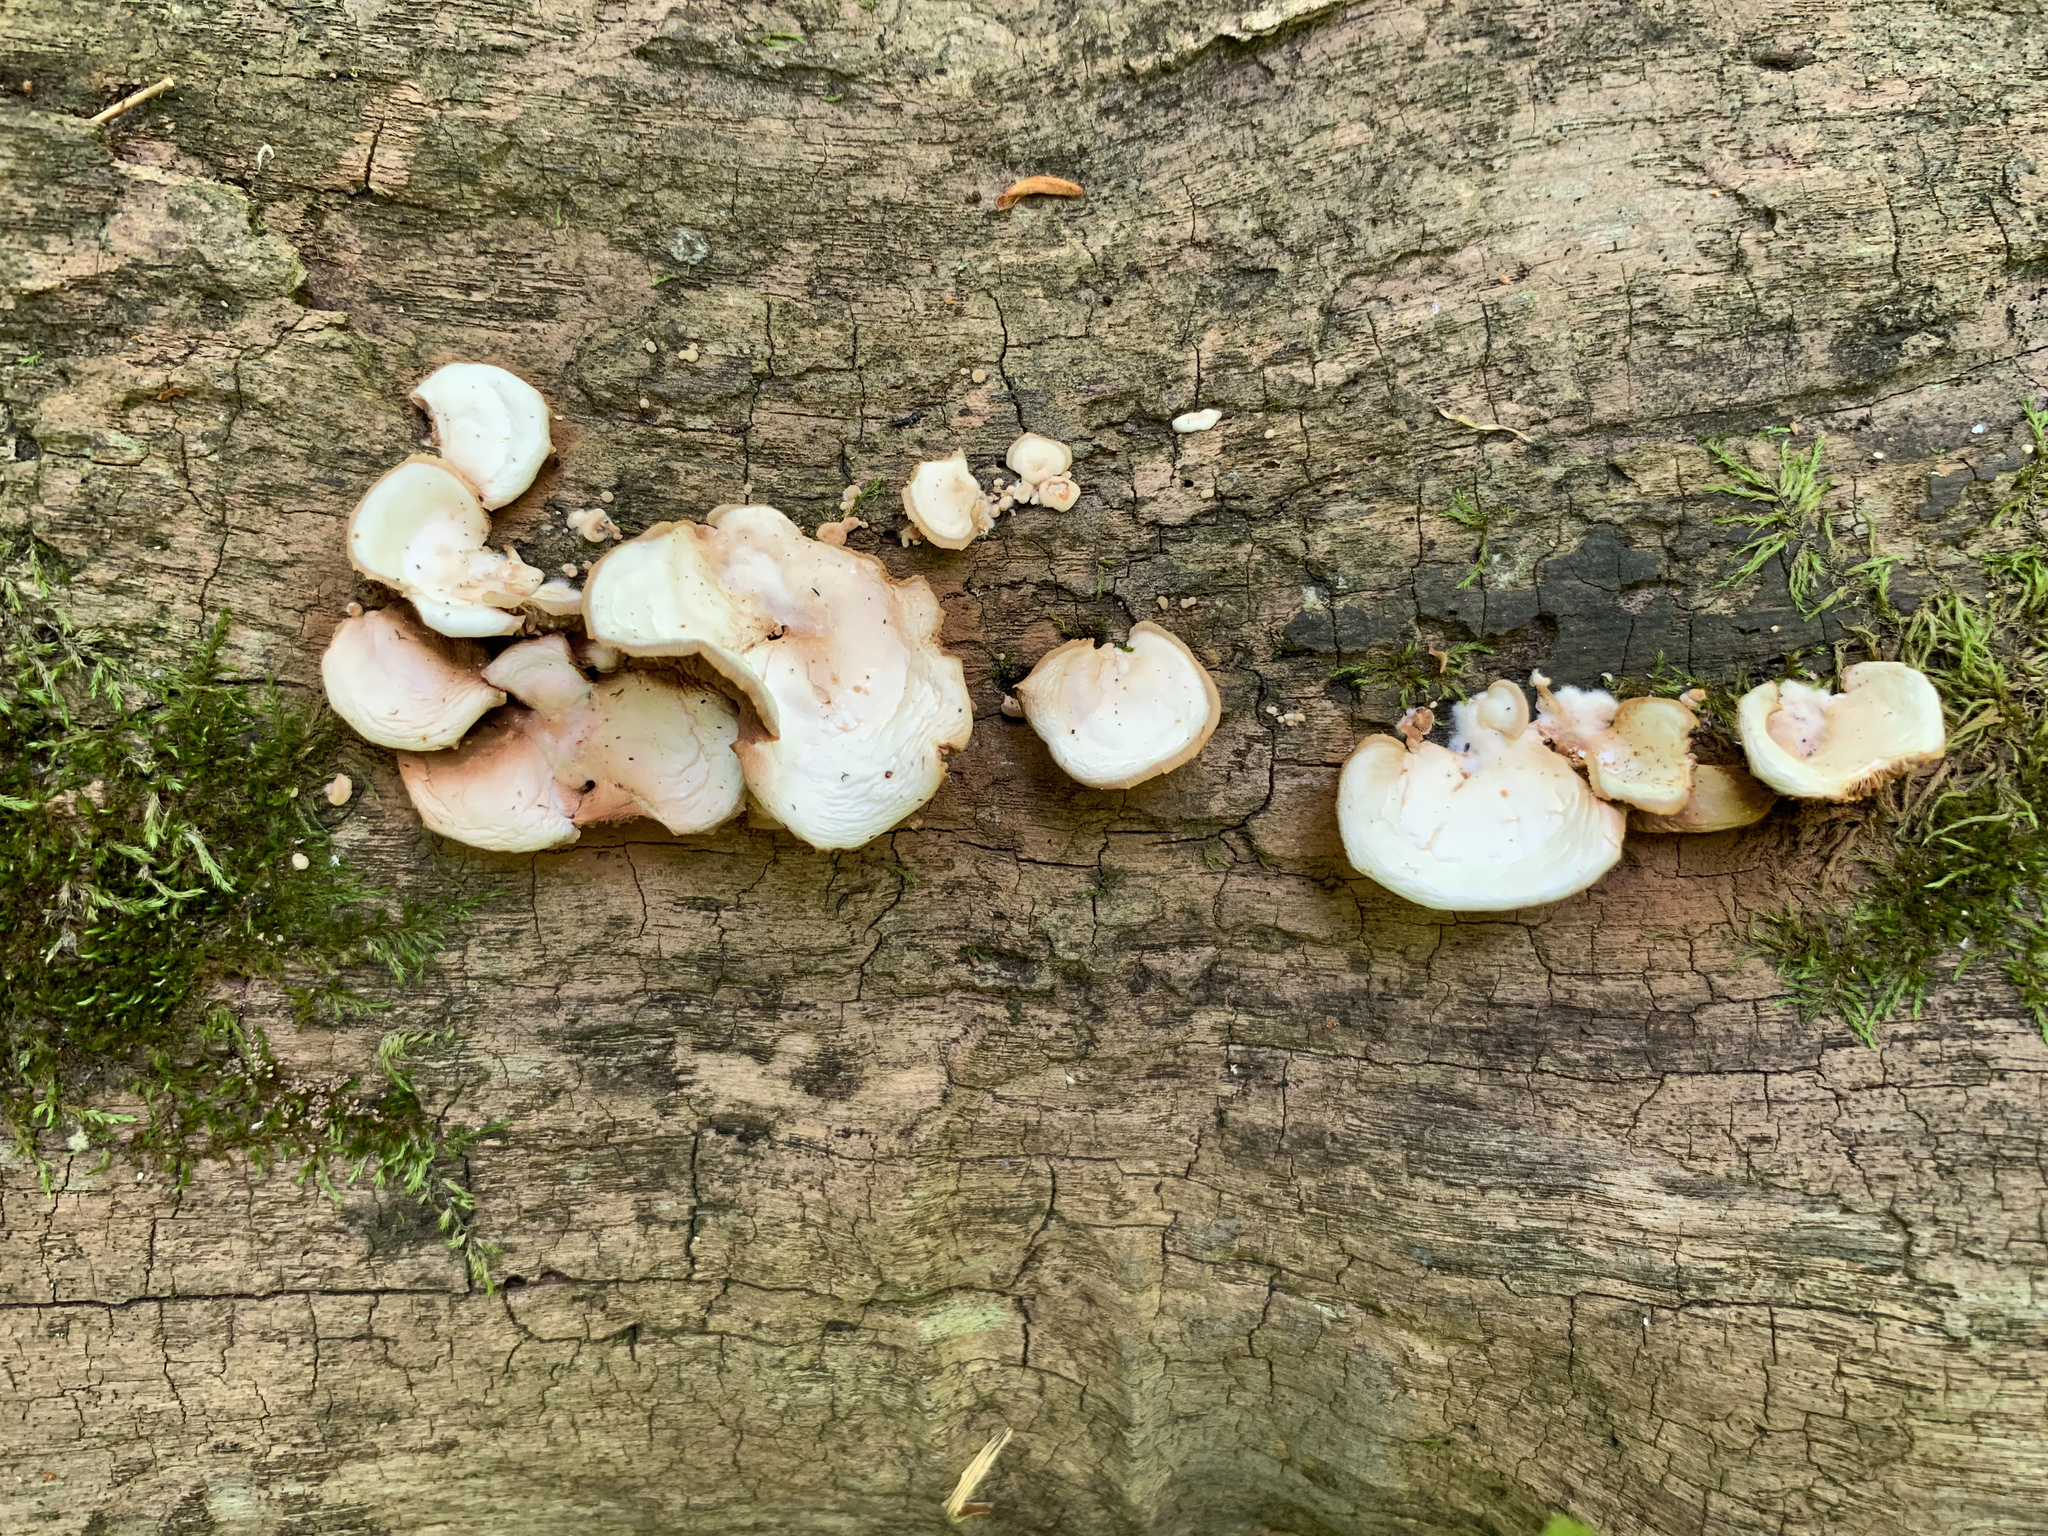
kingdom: Fungi
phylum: Basidiomycota
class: Agaricomycetes
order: Agaricales
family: Crepidotaceae
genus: Crepidotus
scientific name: Crepidotus mollis
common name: Peeling oysterling
